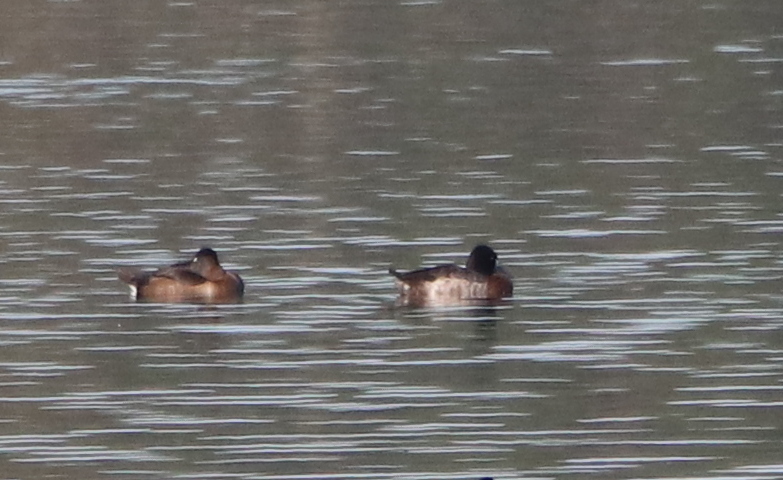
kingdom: Animalia
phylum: Chordata
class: Aves
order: Anseriformes
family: Anatidae
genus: Aythya
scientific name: Aythya collaris
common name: Ring-necked duck
